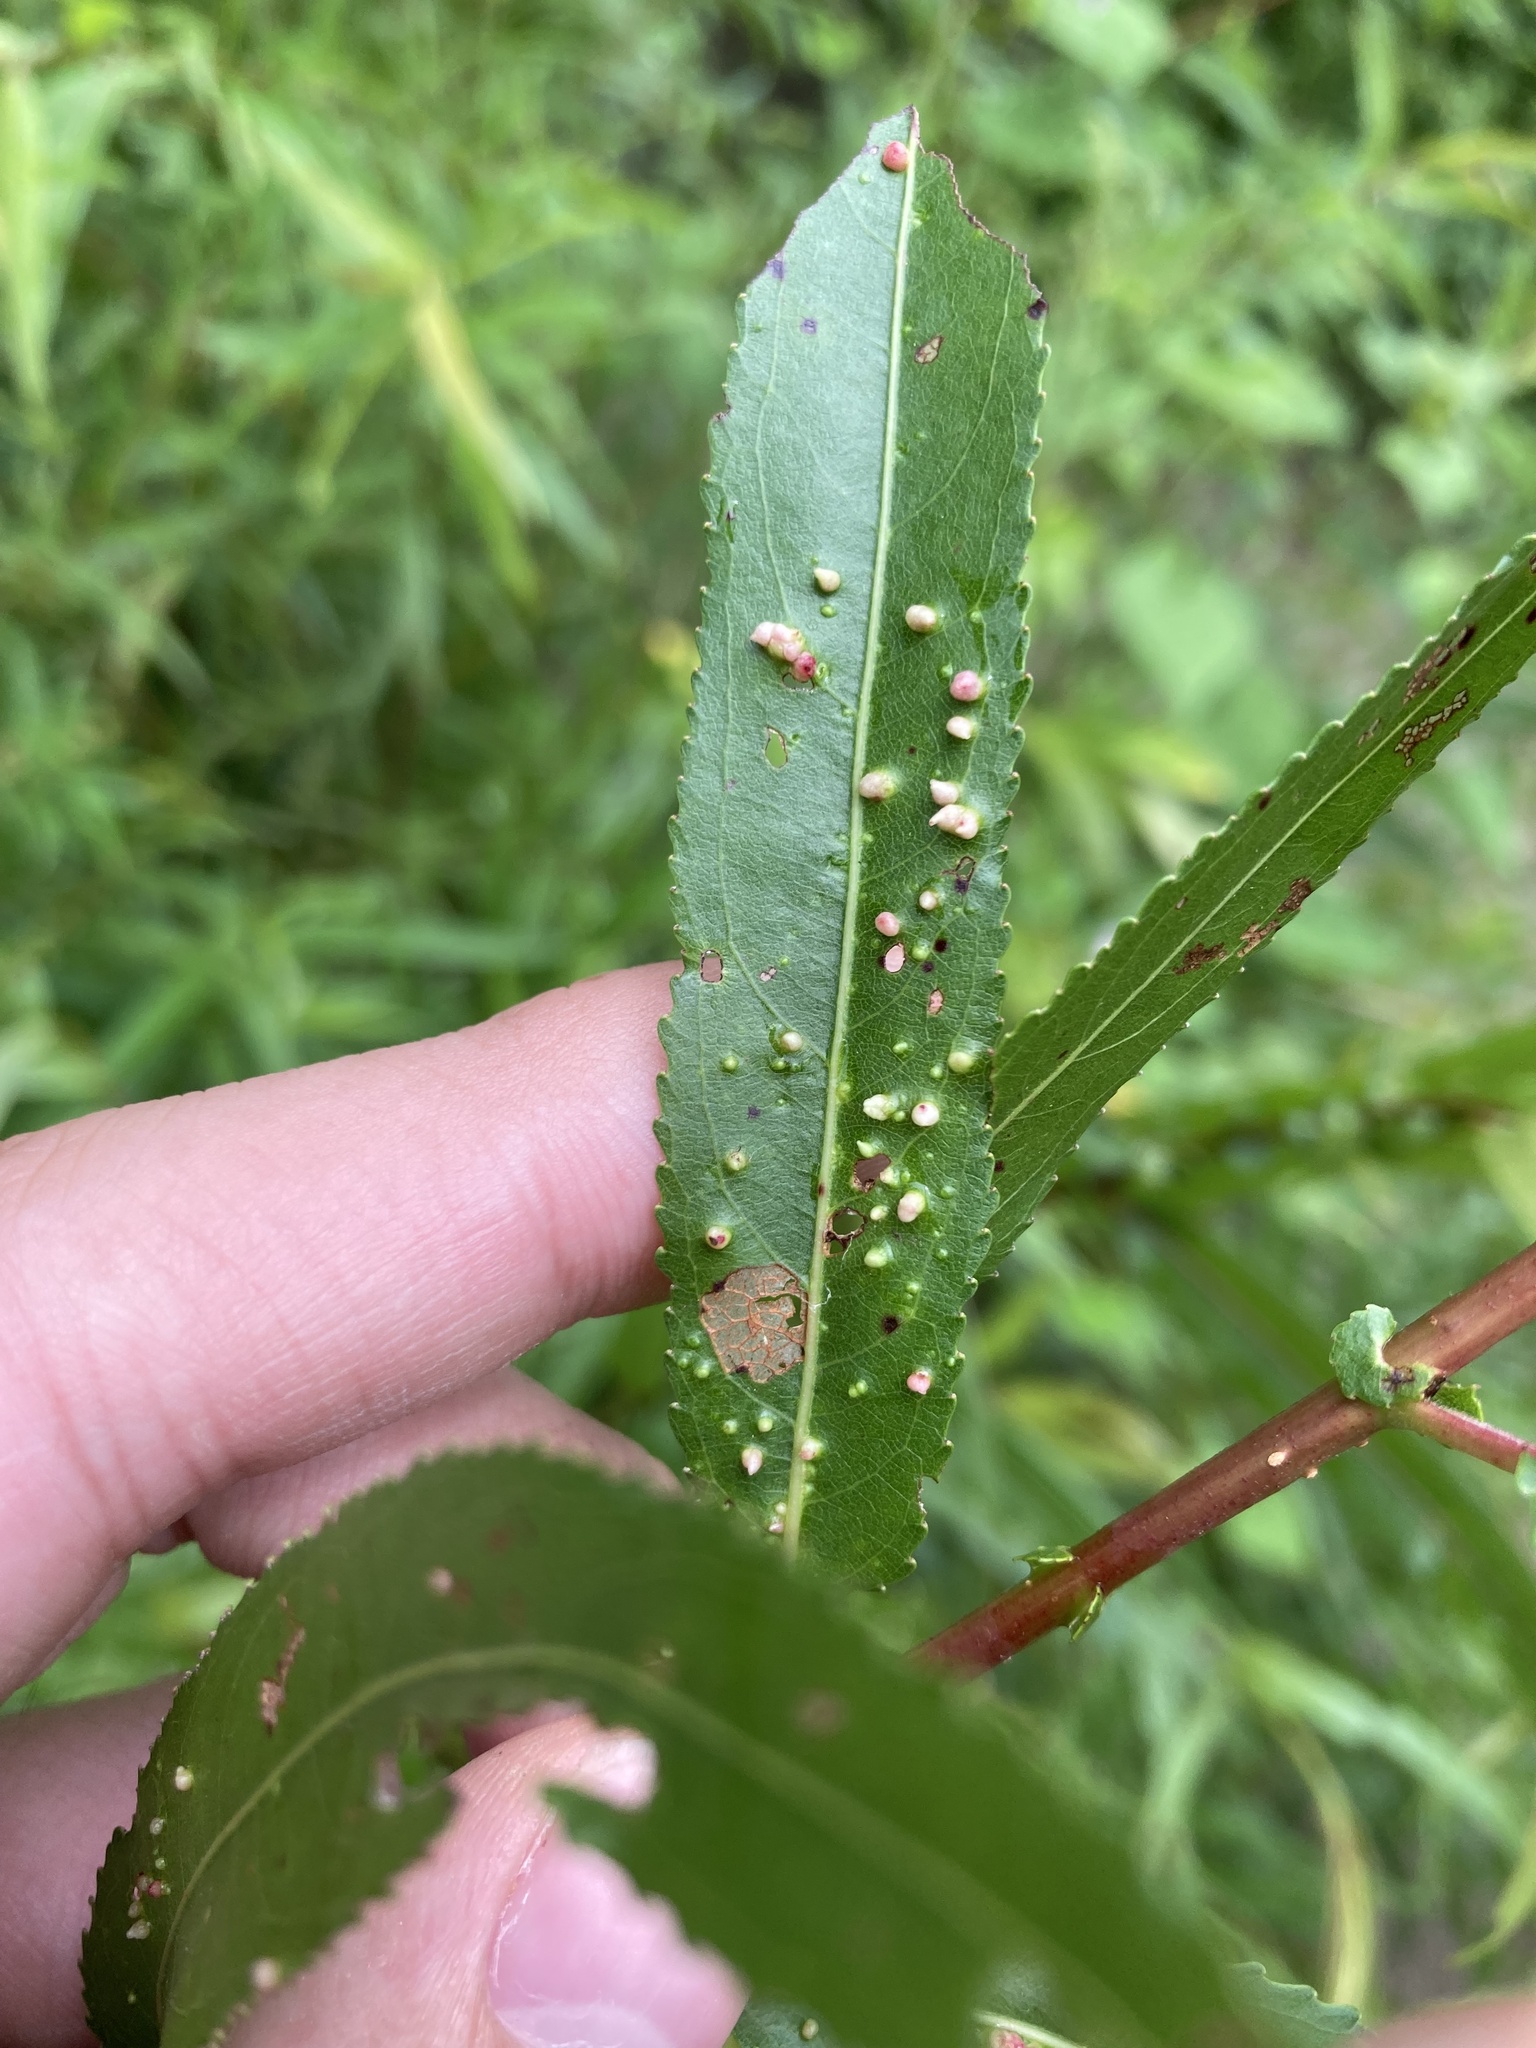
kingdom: Animalia
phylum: Arthropoda
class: Arachnida
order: Trombidiformes
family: Eriophyidae
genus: Aculus
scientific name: Aculus tetanothrix
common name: Willow bead gall mite
